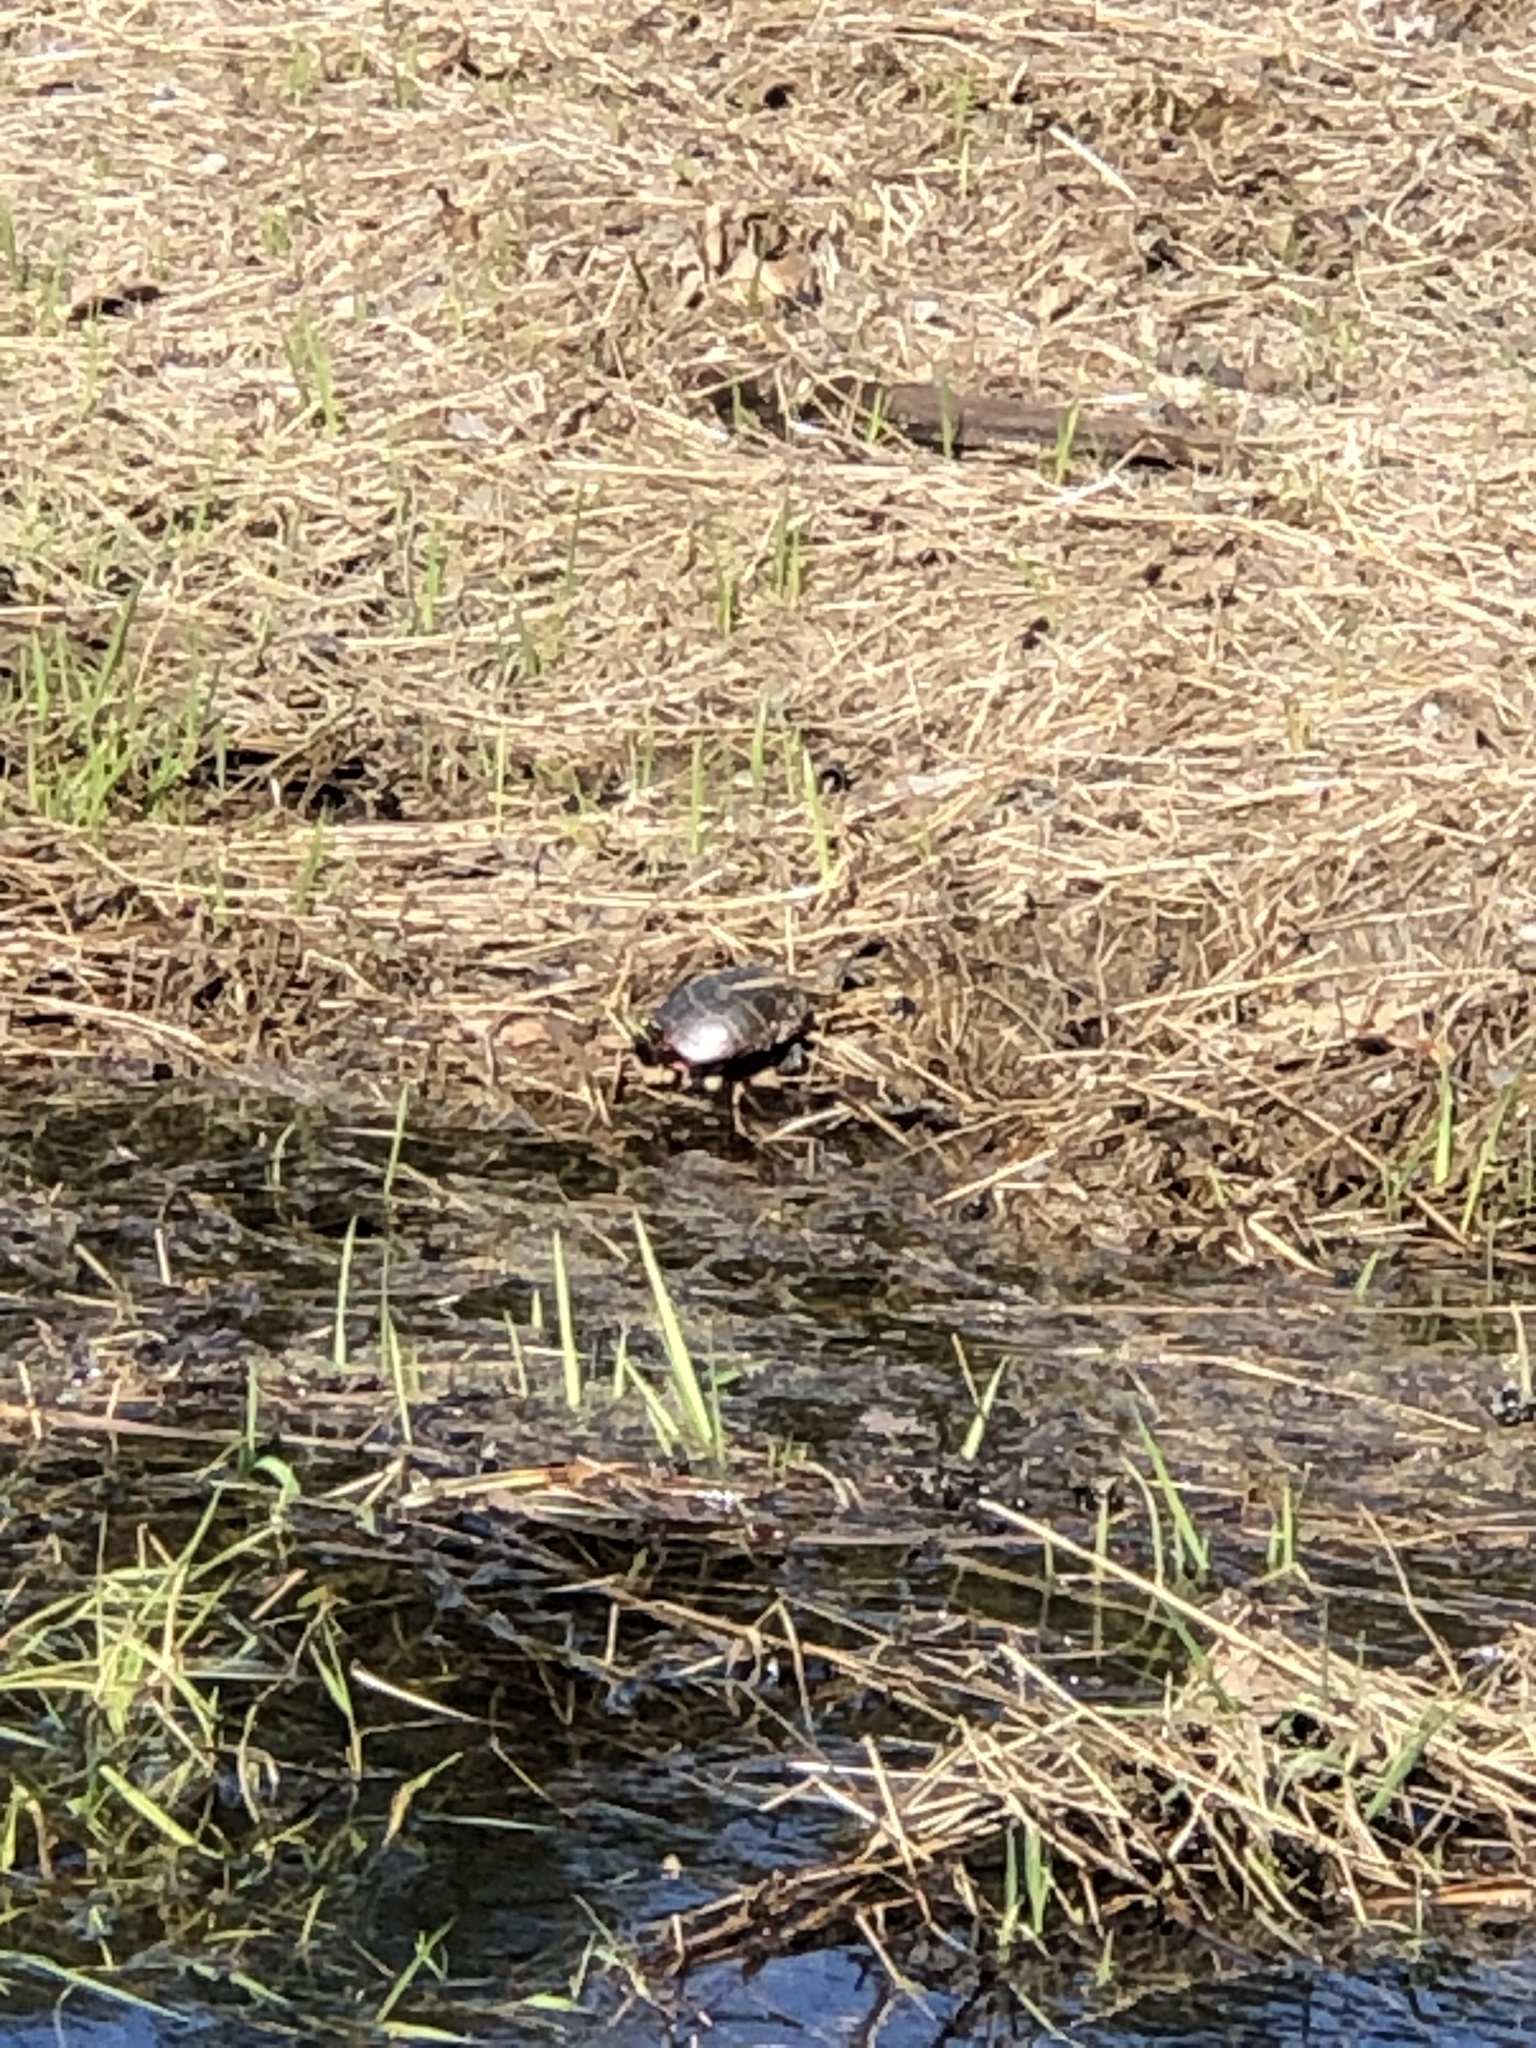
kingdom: Animalia
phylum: Chordata
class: Testudines
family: Emydidae
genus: Chrysemys
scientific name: Chrysemys picta
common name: Painted turtle
